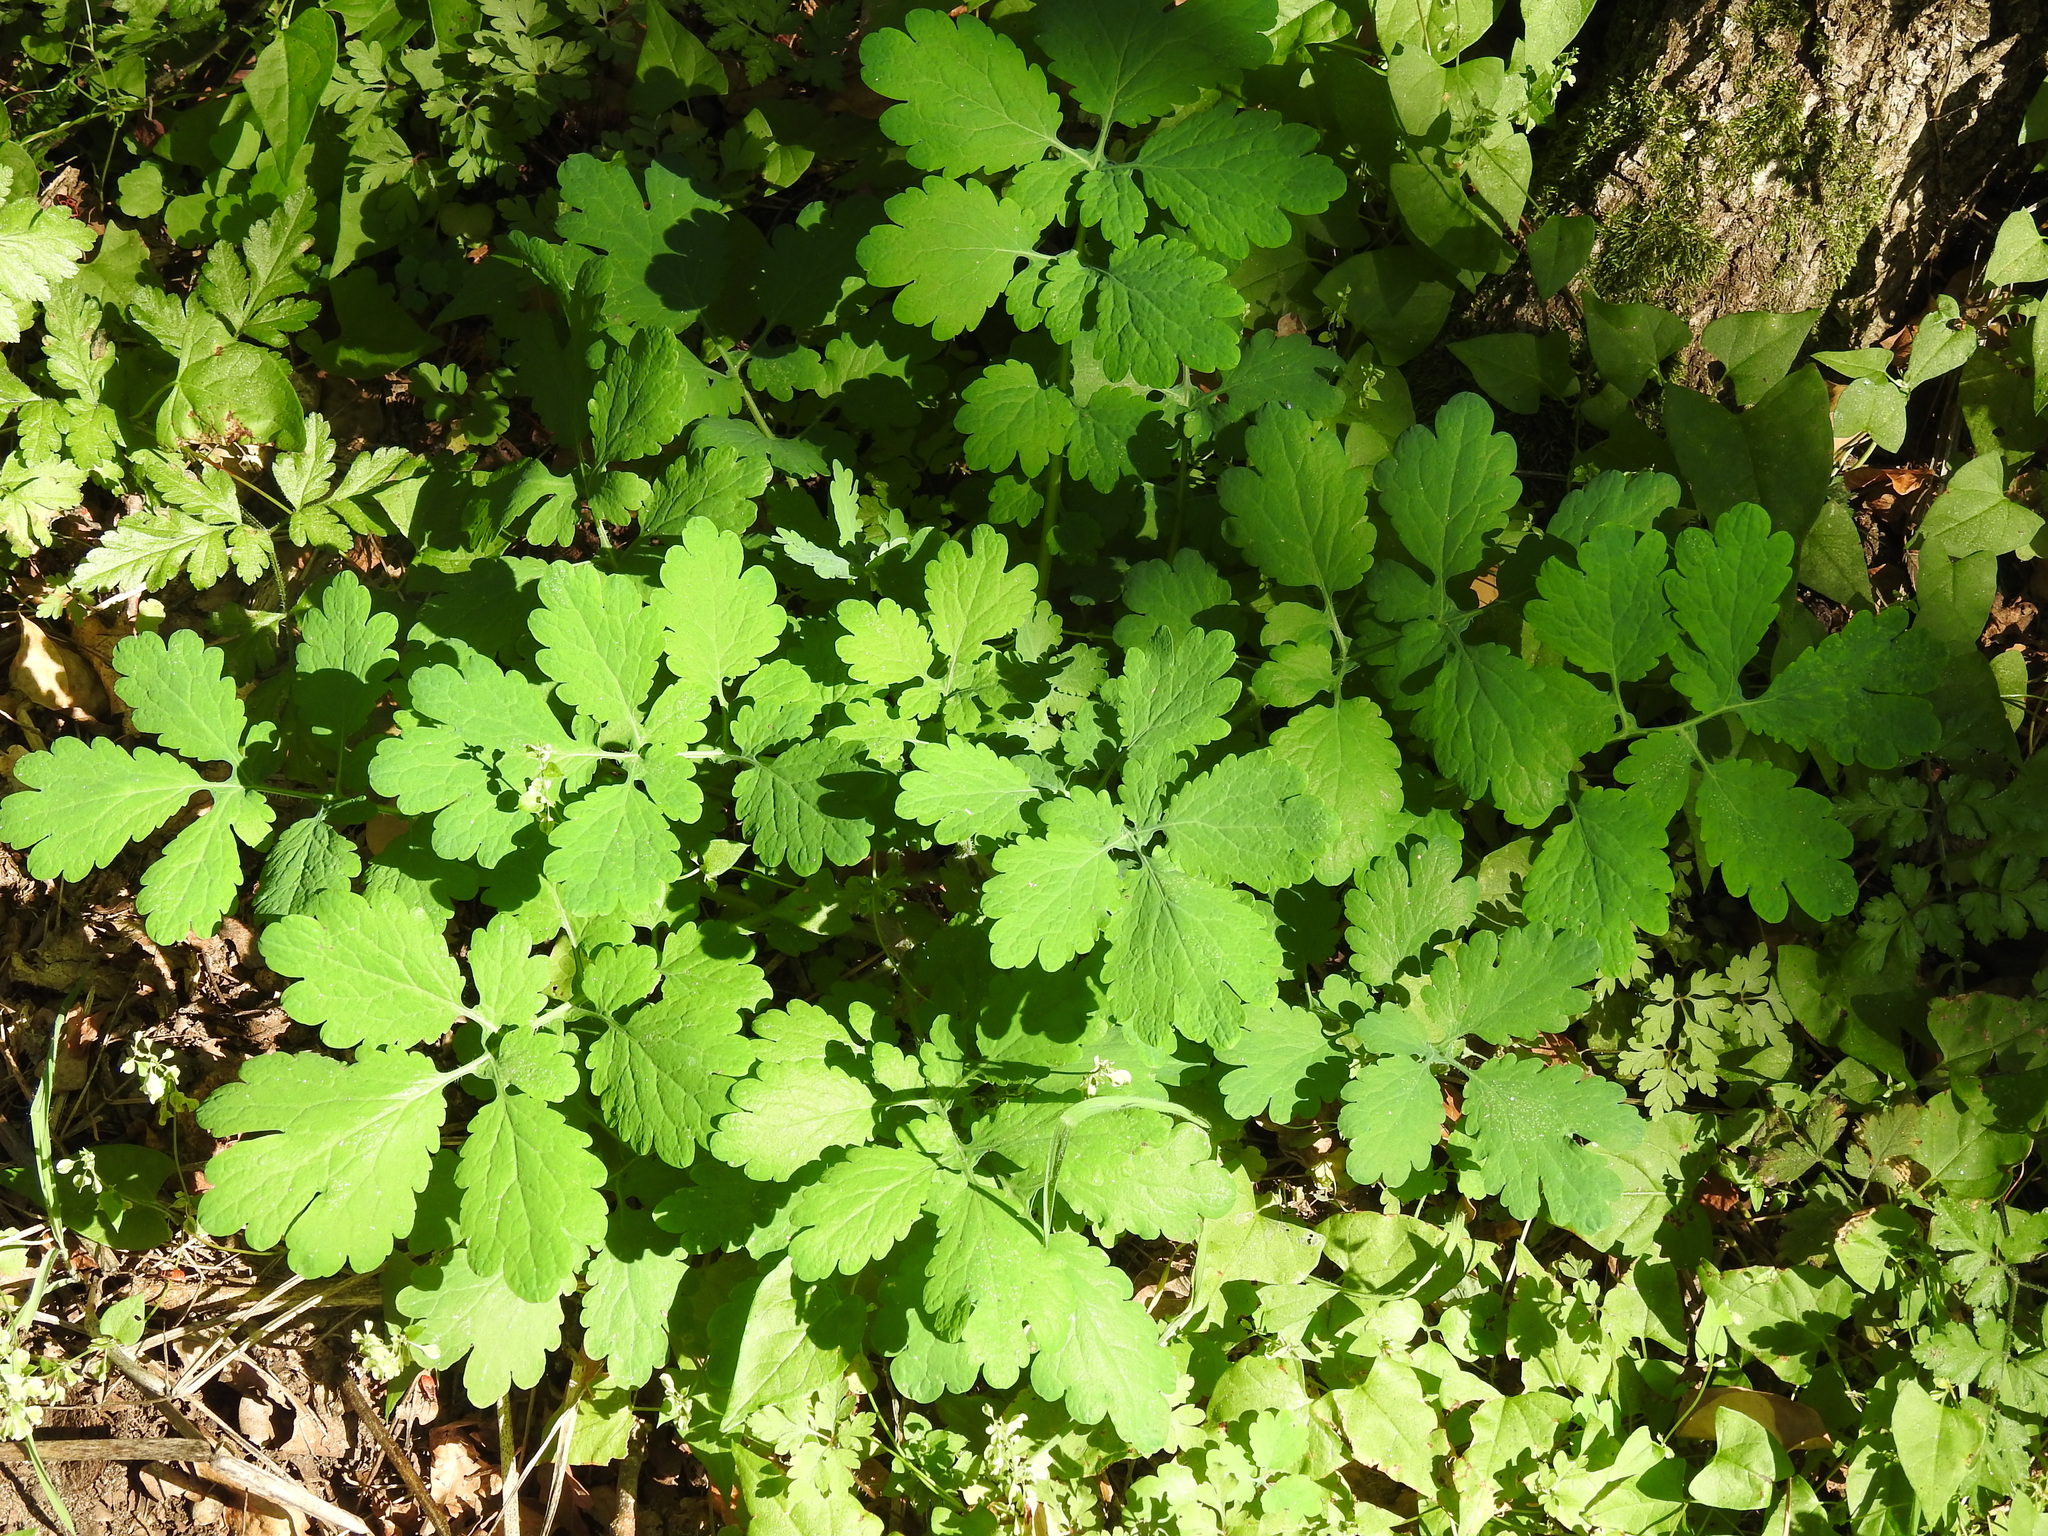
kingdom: Plantae
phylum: Tracheophyta
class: Magnoliopsida
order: Ranunculales
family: Papaveraceae
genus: Chelidonium
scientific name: Chelidonium majus
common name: Greater celandine
